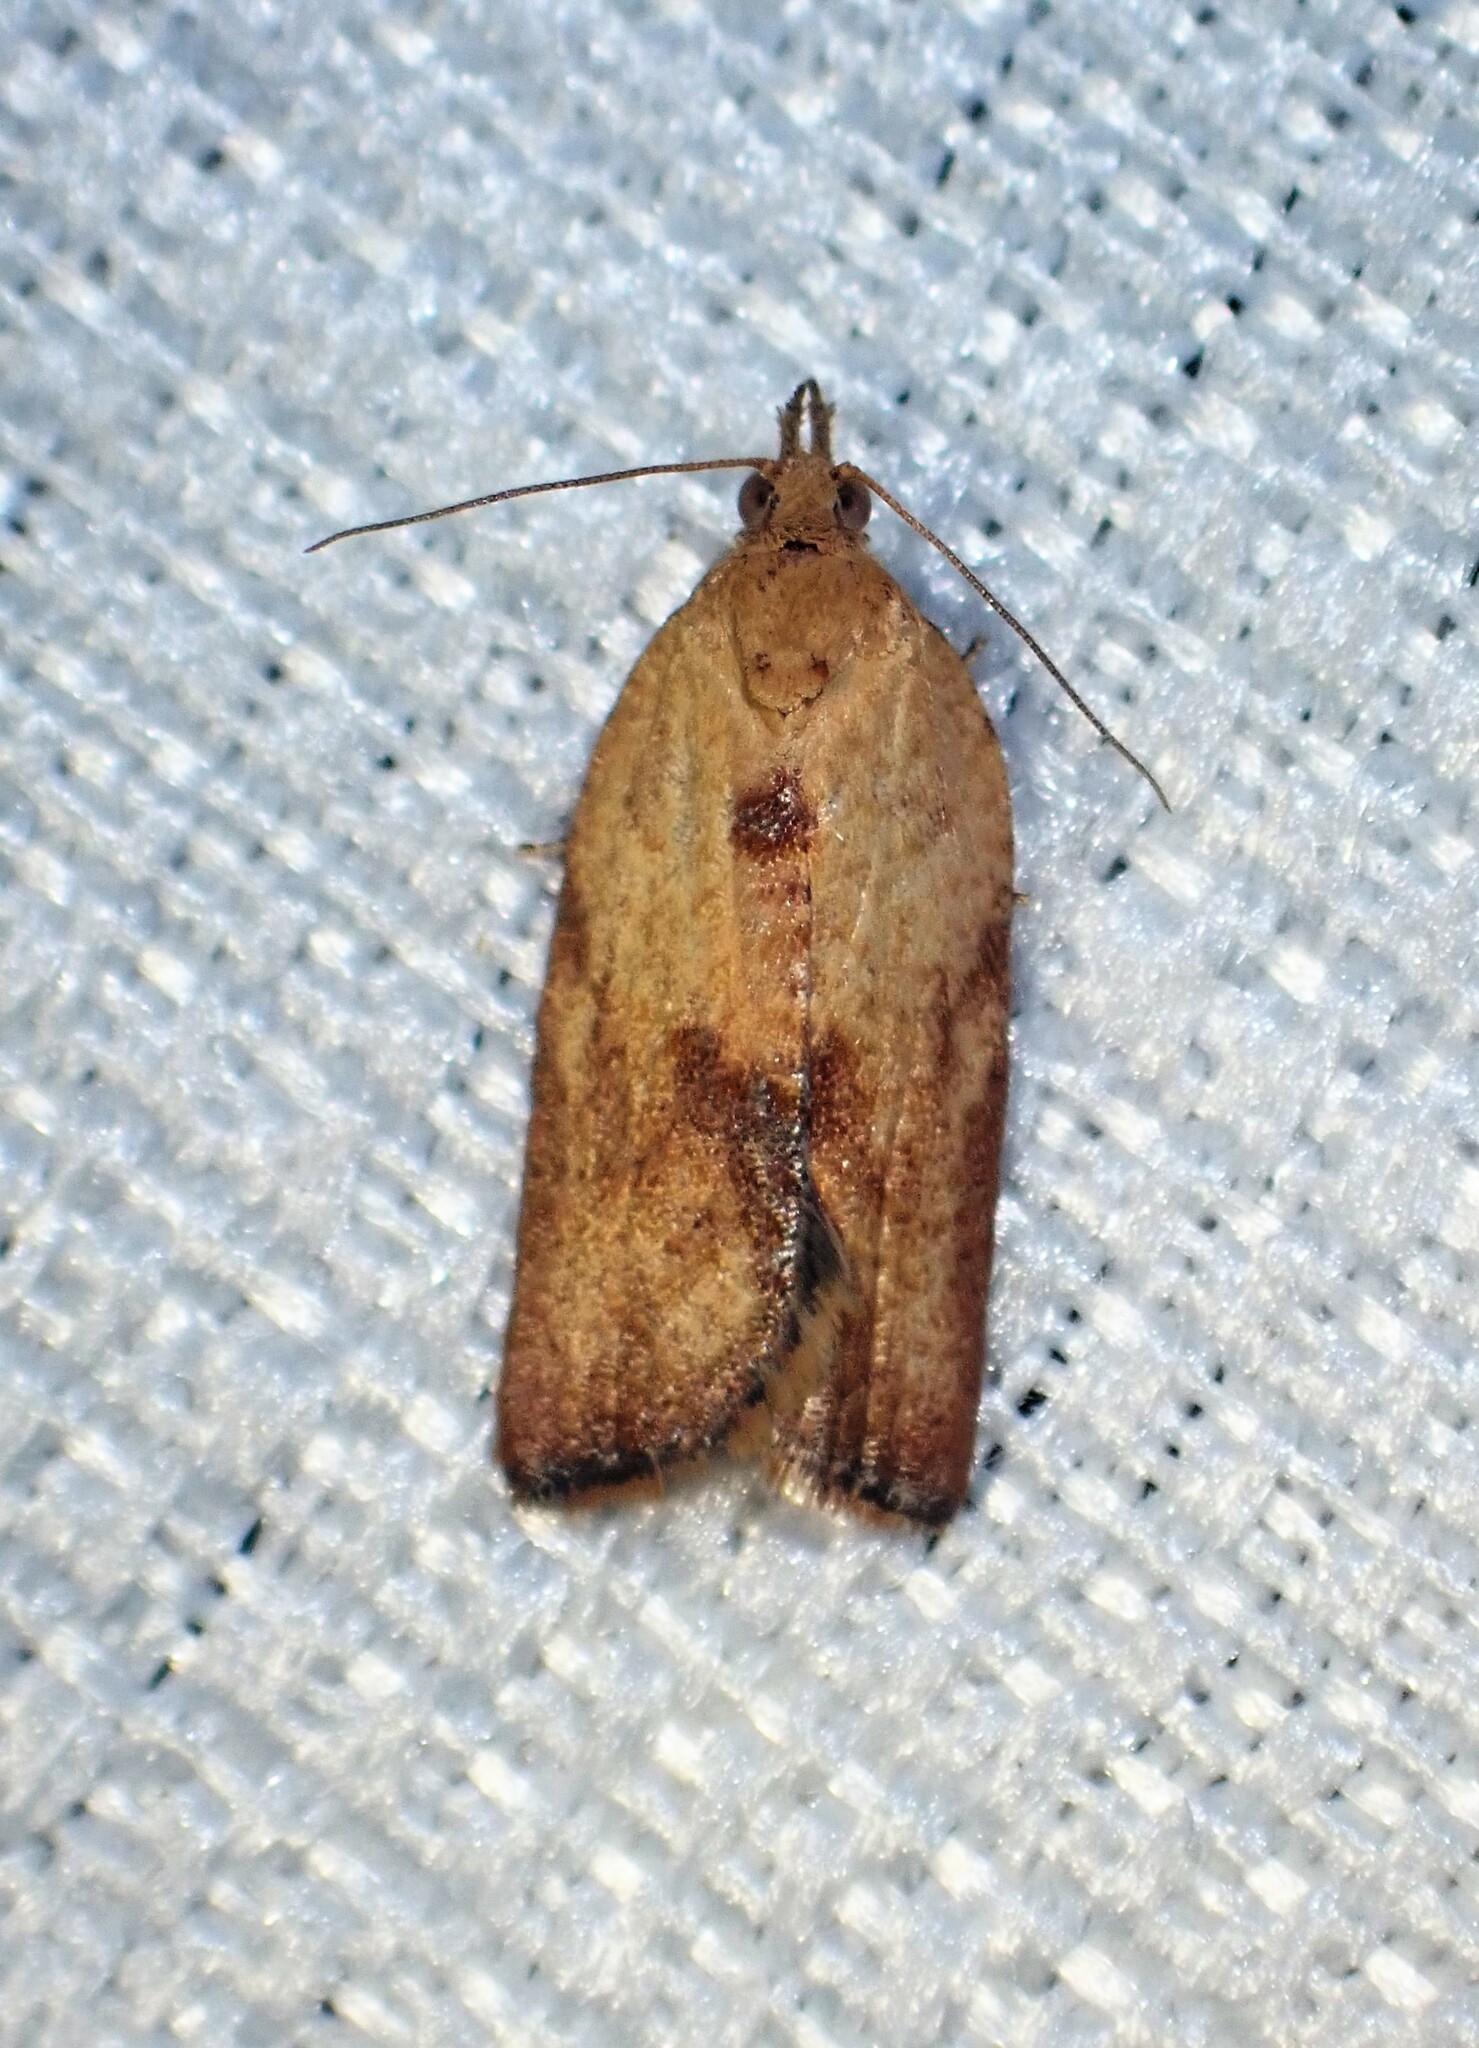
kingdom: Animalia
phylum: Arthropoda
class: Insecta
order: Lepidoptera
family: Tortricidae
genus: Epiphyas
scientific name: Epiphyas postvittana
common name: Light brown apple moth
